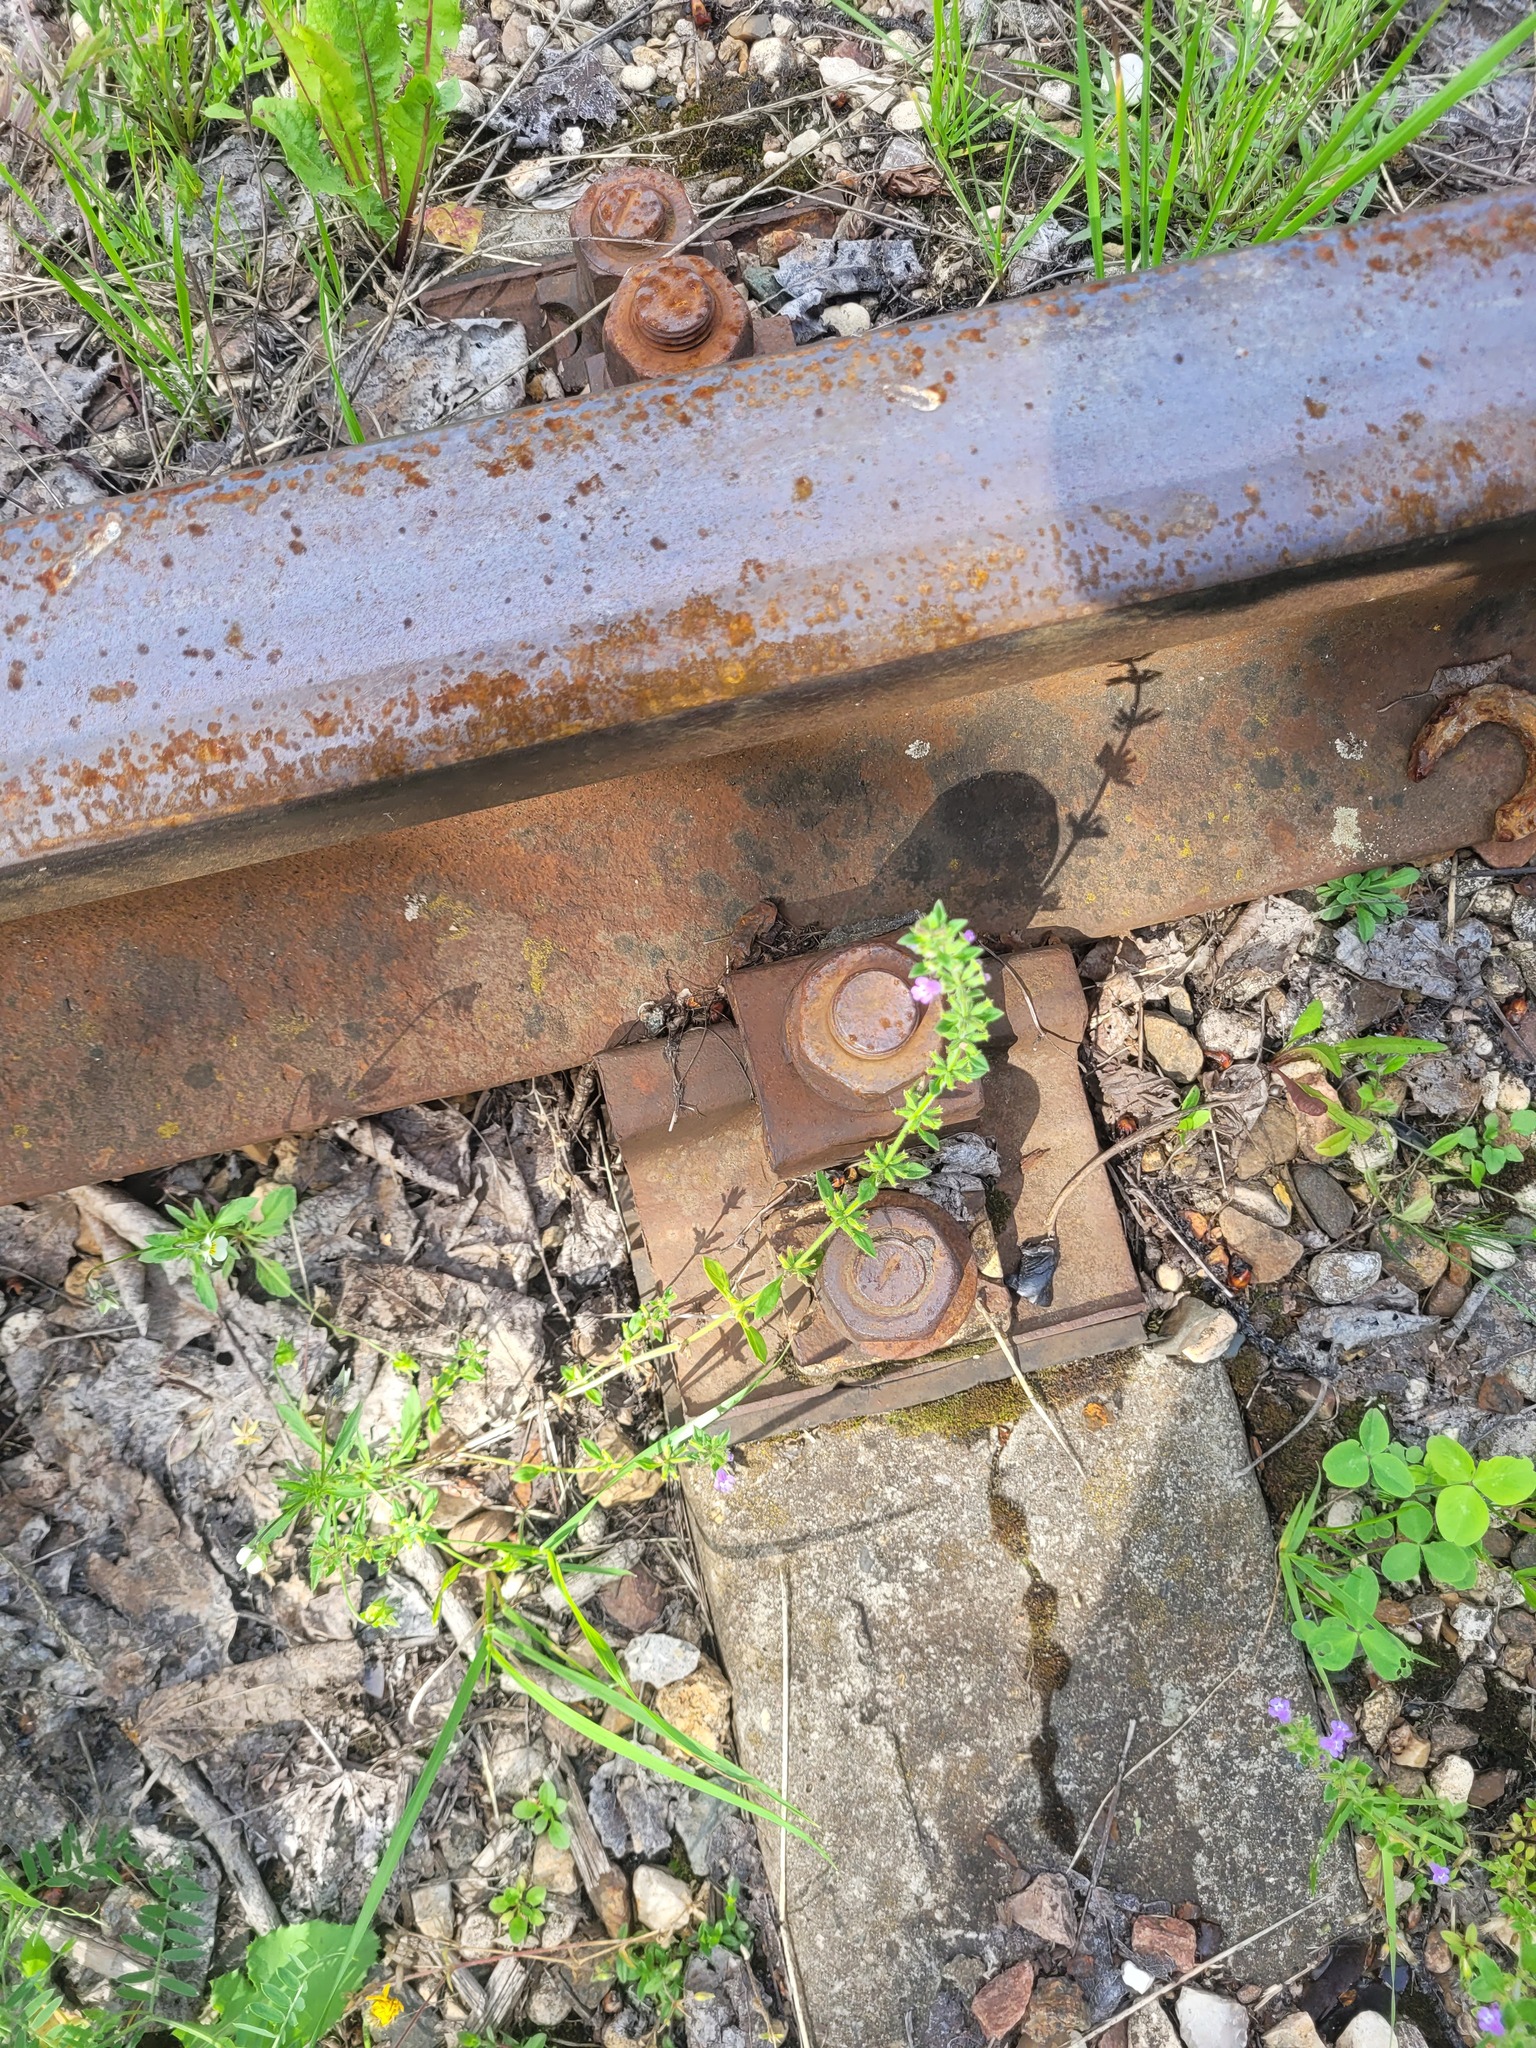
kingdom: Plantae
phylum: Tracheophyta
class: Magnoliopsida
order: Lamiales
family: Lamiaceae
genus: Clinopodium
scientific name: Clinopodium acinos
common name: Basil thyme
